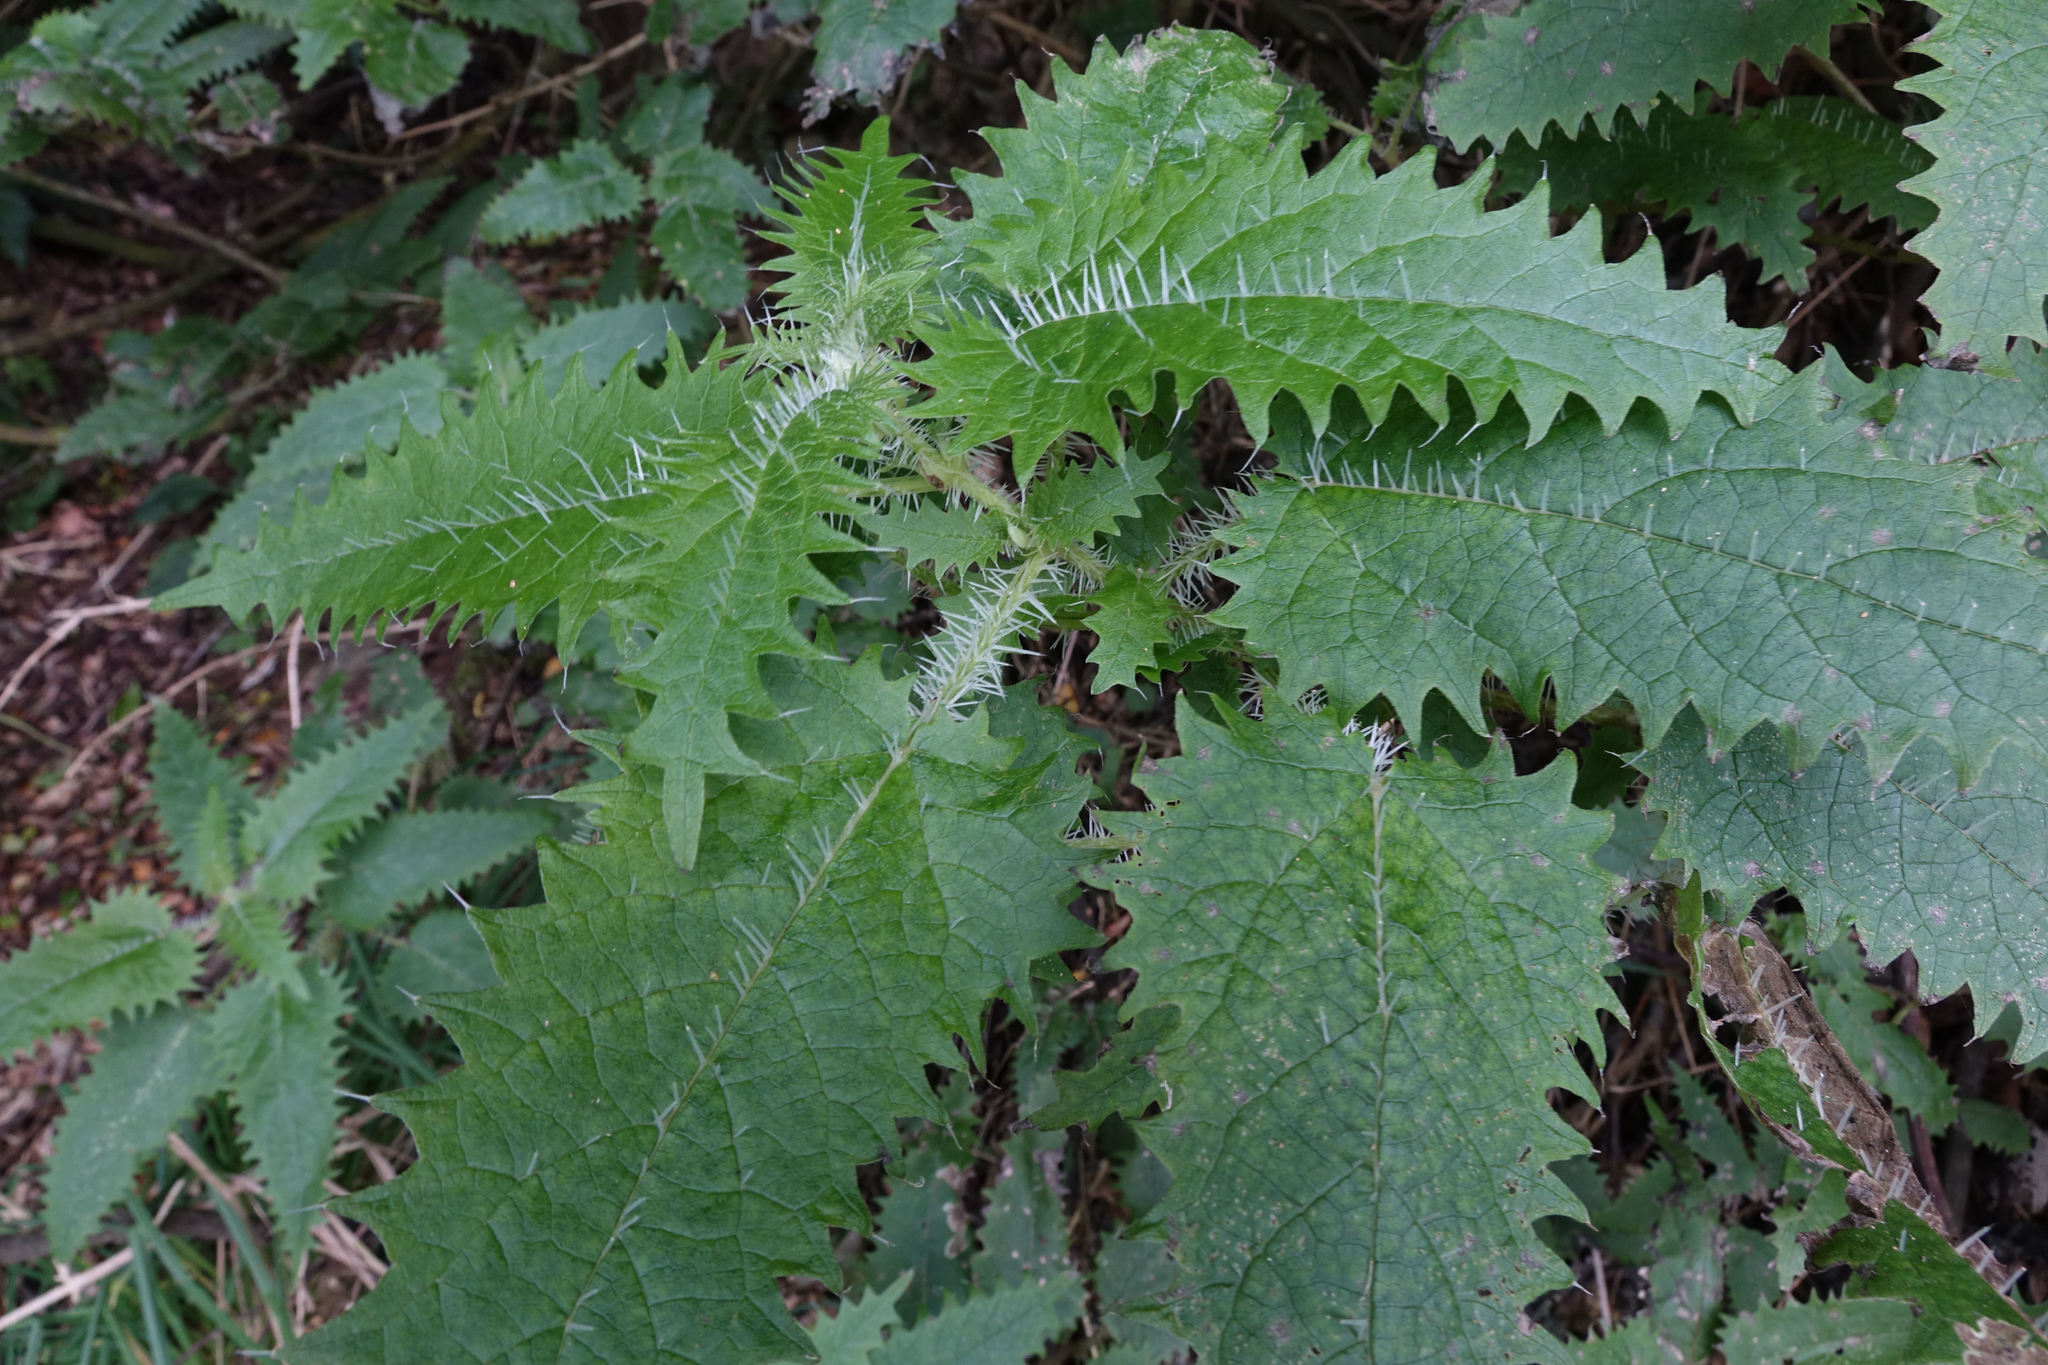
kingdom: Plantae
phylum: Tracheophyta
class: Magnoliopsida
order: Rosales
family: Urticaceae
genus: Urtica
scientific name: Urtica ferox
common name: Tree nettle
